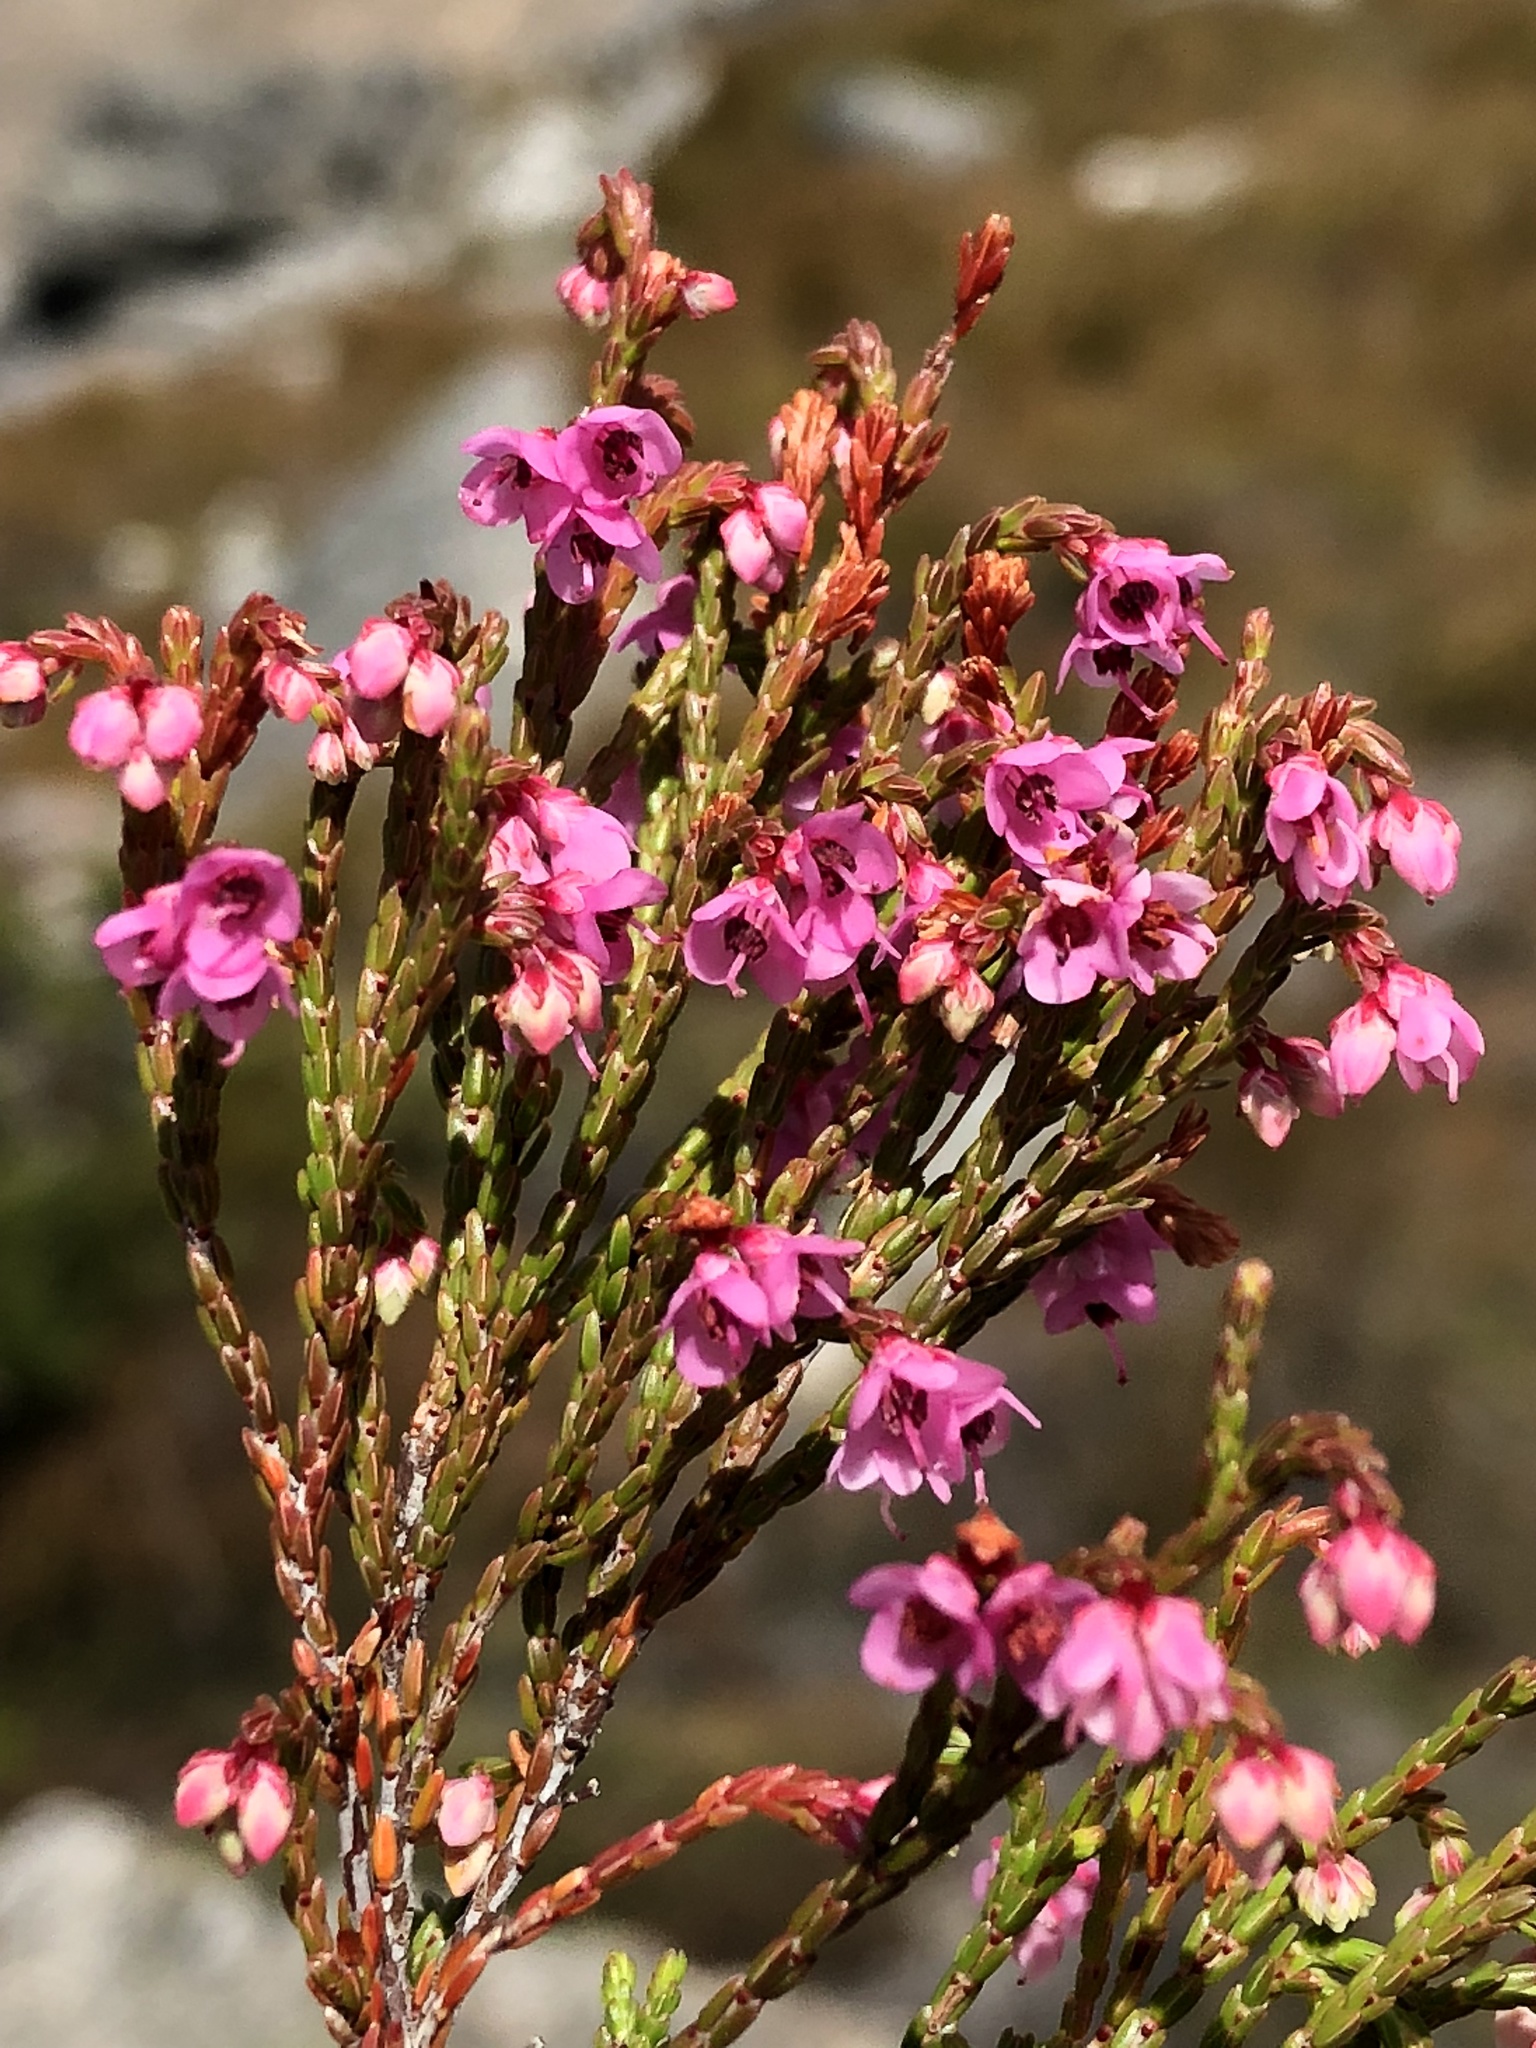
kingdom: Plantae
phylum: Tracheophyta
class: Magnoliopsida
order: Ericales
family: Ericaceae
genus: Erica
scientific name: Erica humifusa
